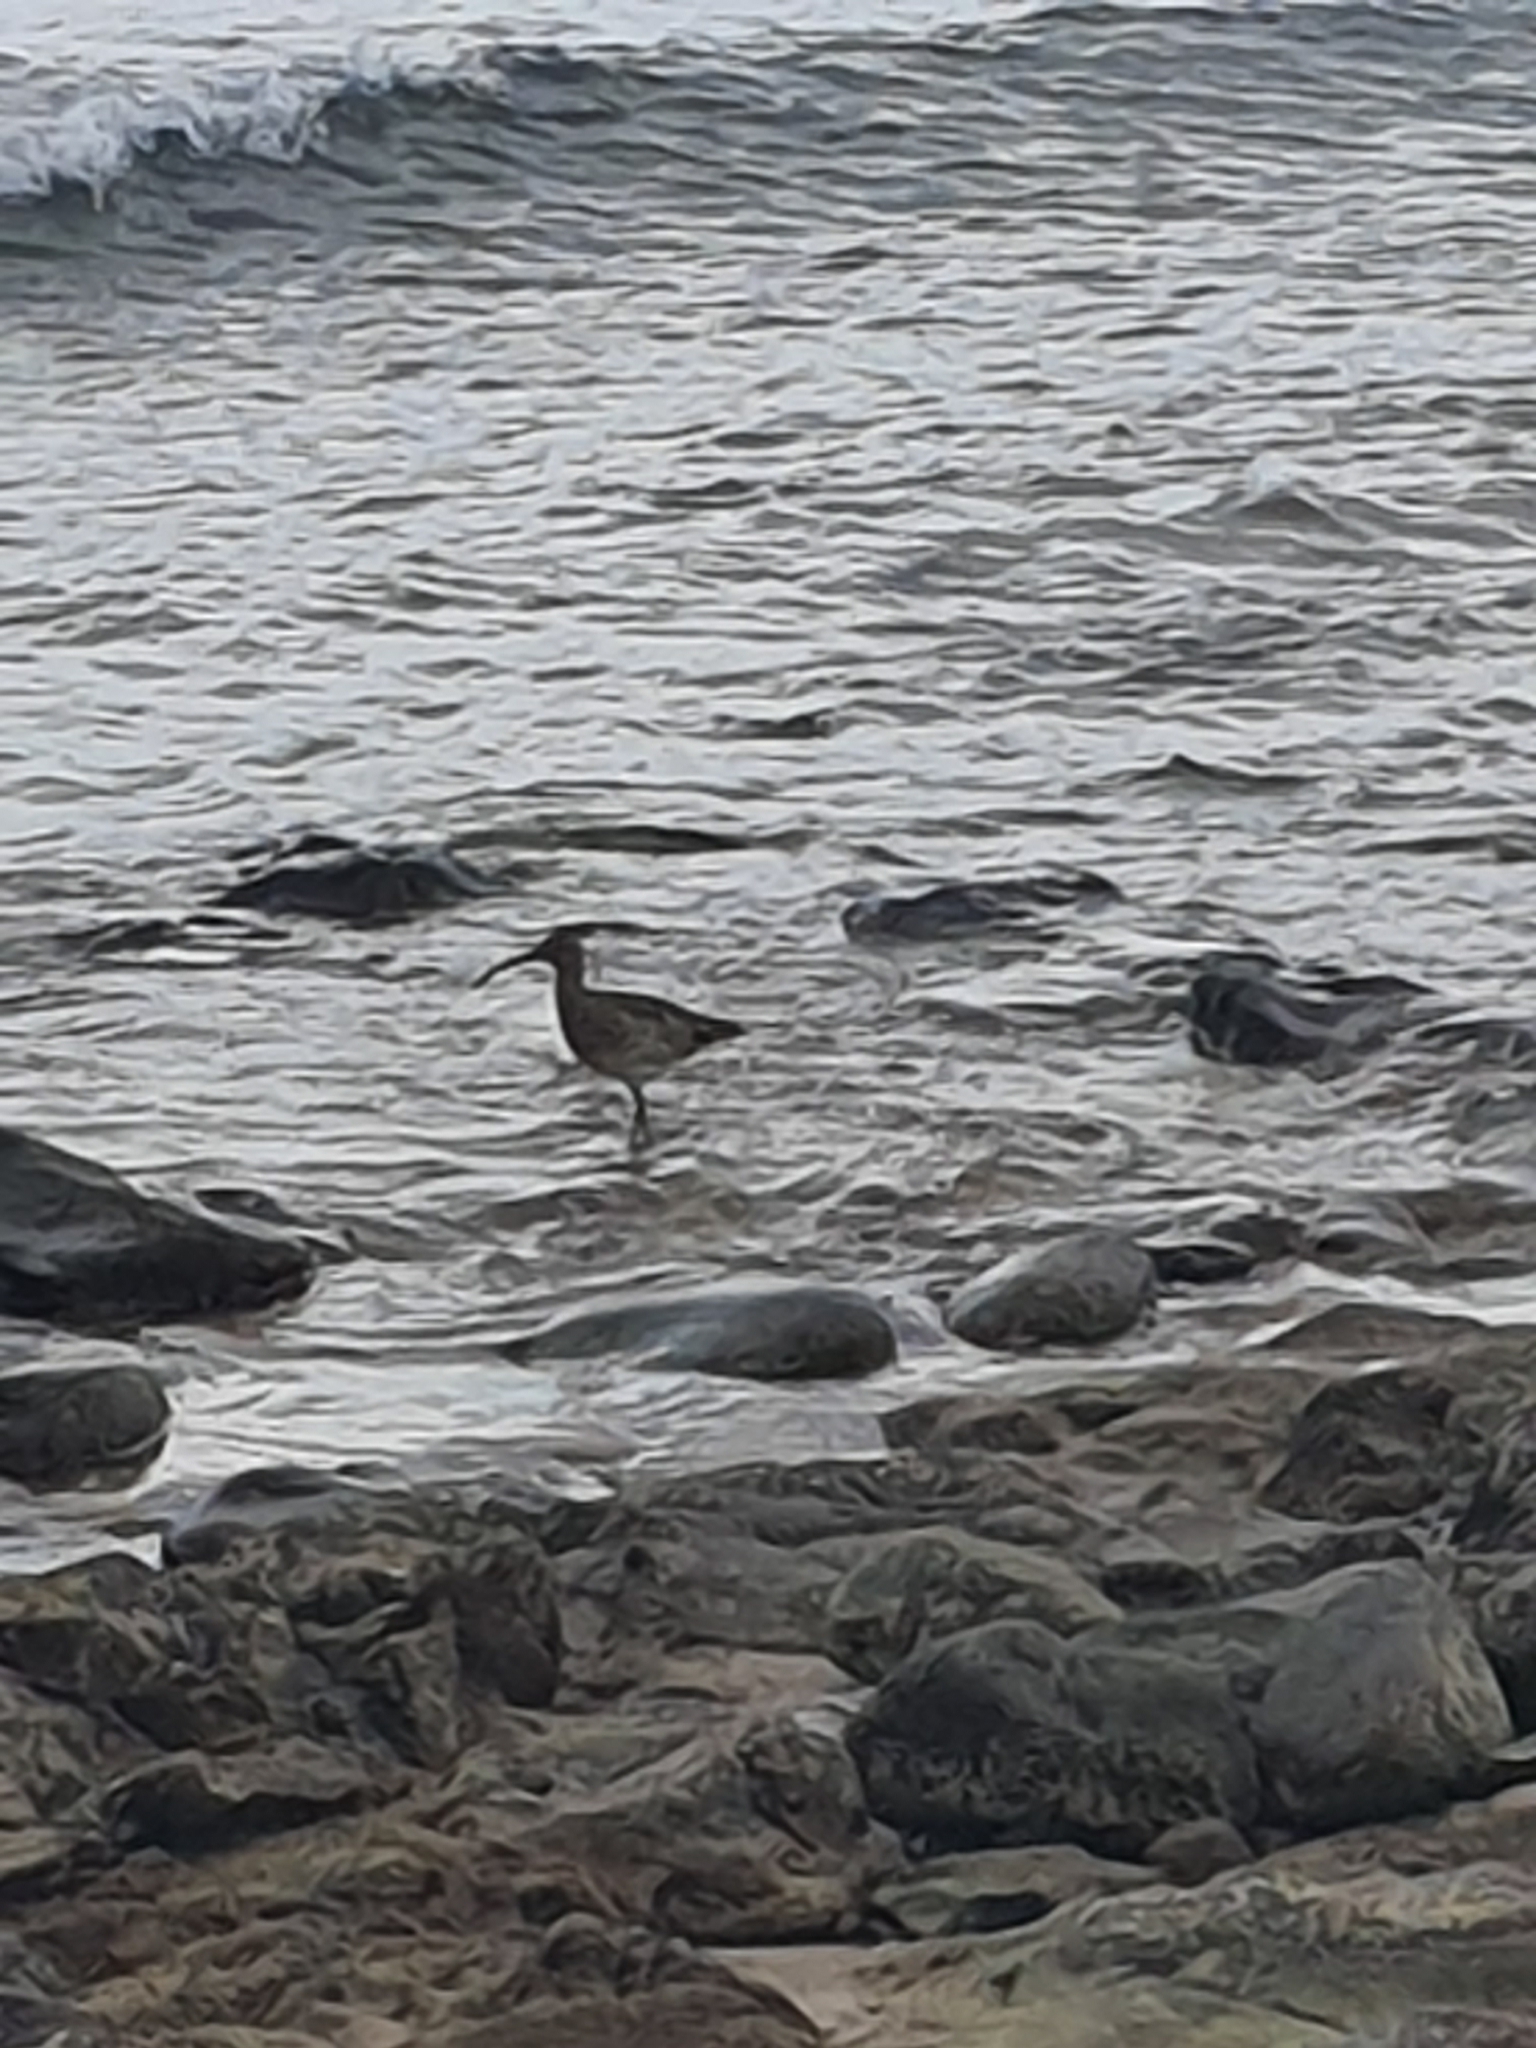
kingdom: Animalia
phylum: Chordata
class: Aves
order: Charadriiformes
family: Scolopacidae
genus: Numenius
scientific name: Numenius phaeopus
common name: Whimbrel
